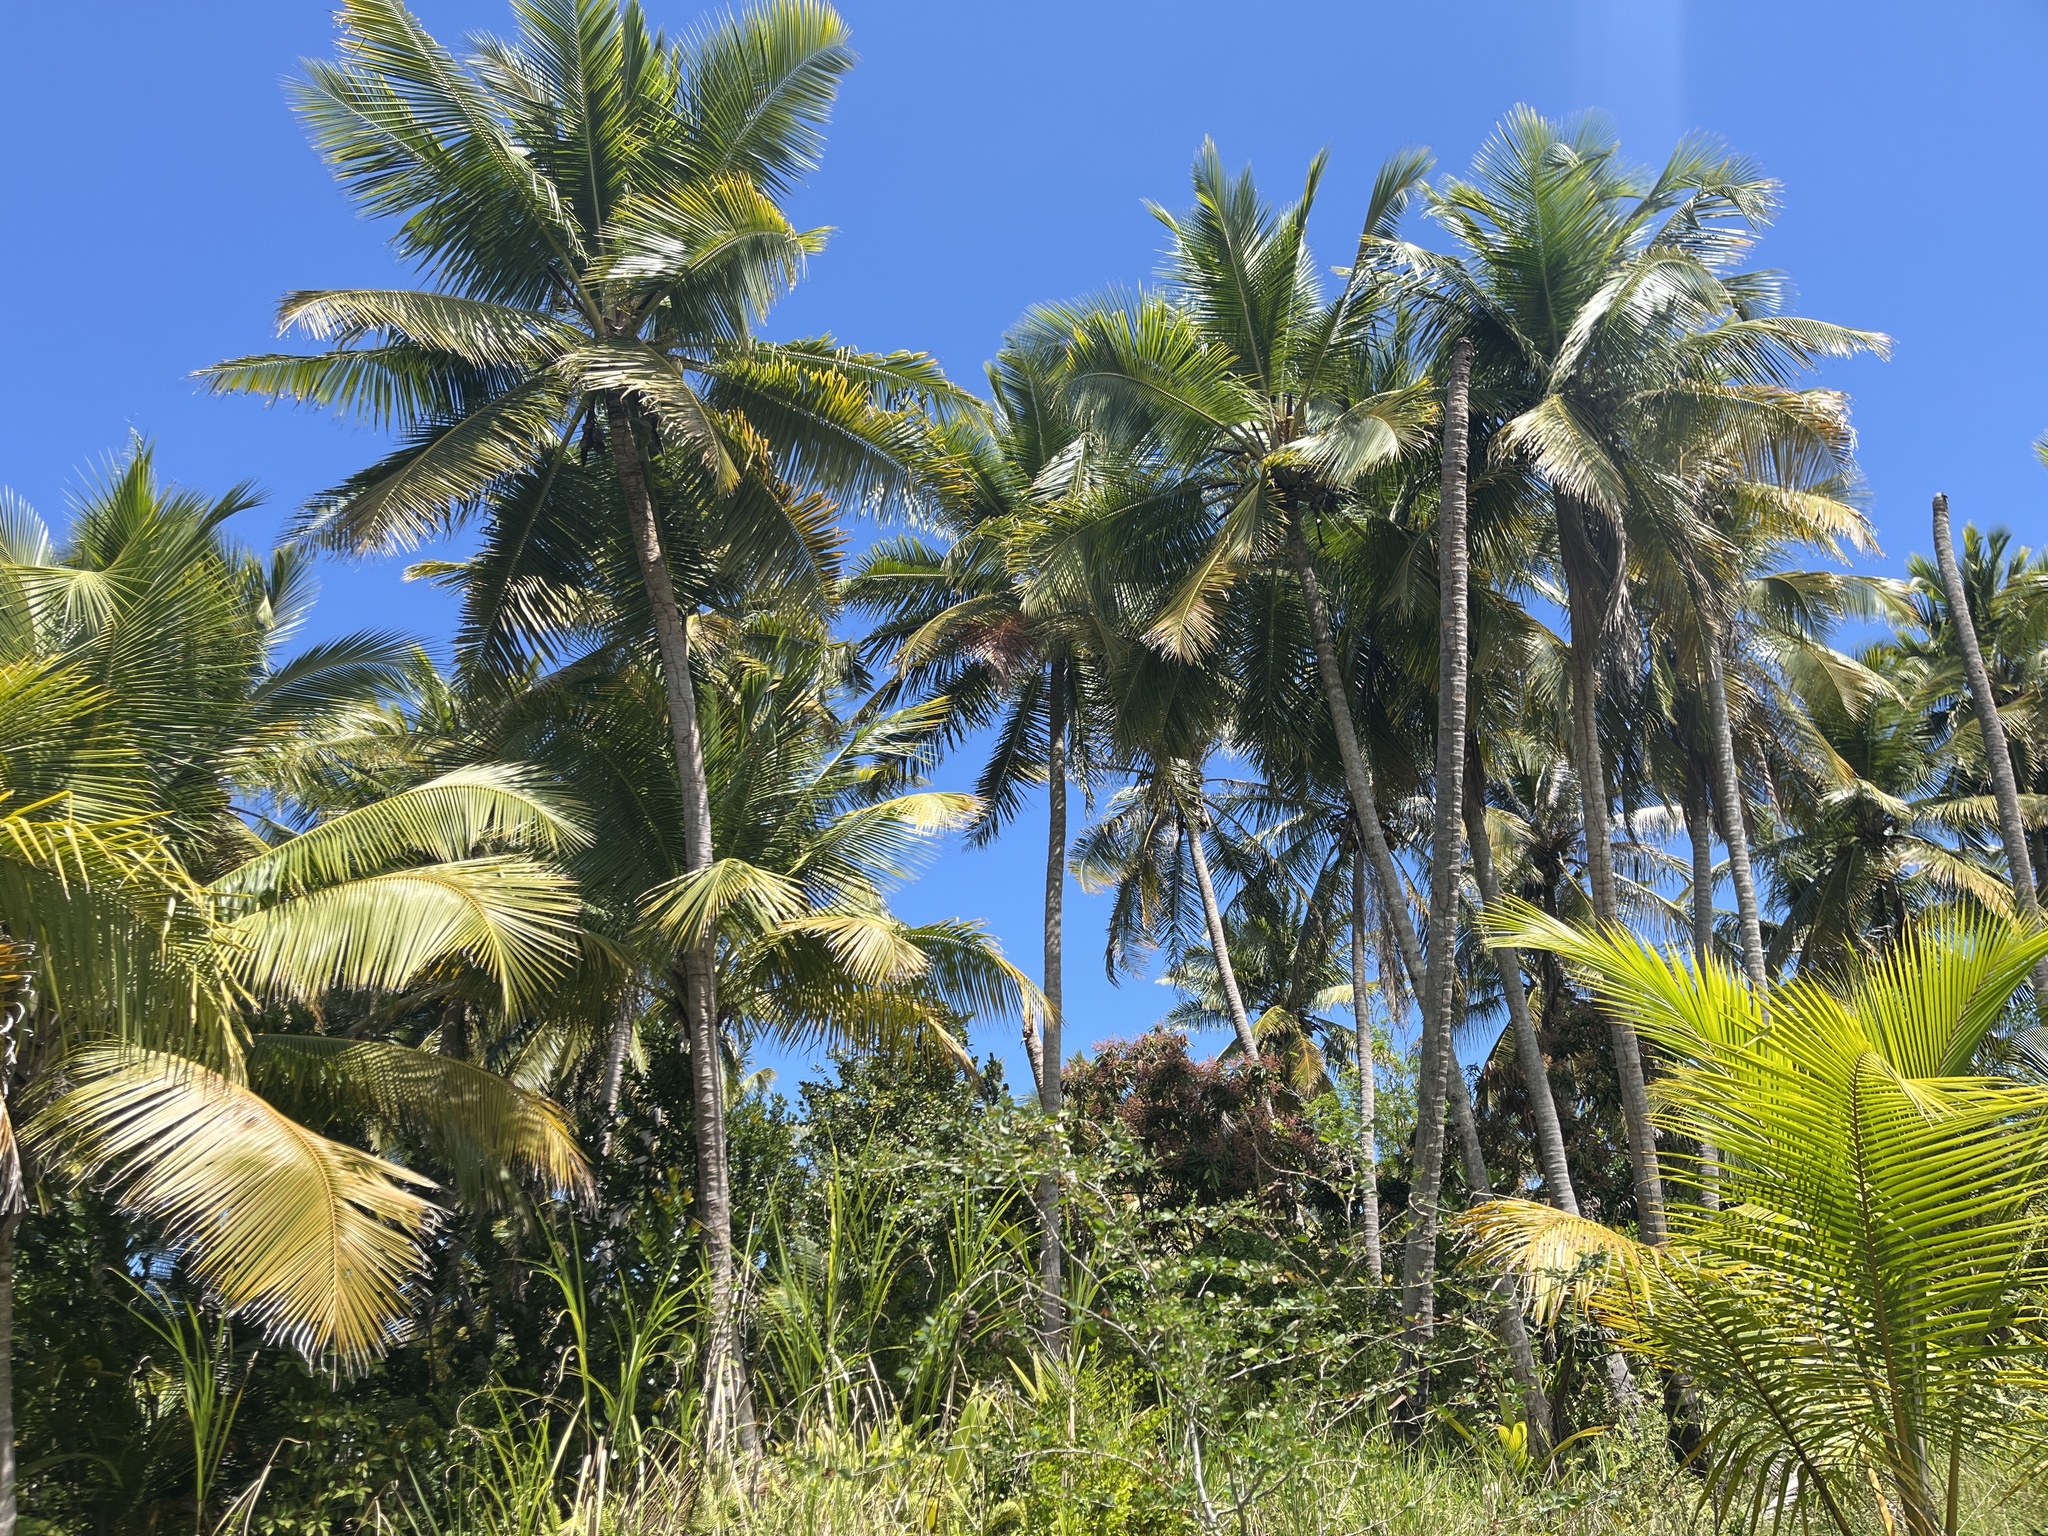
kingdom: Plantae
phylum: Tracheophyta
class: Liliopsida
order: Arecales
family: Arecaceae
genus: Cocos
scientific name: Cocos nucifera
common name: Coconut palm
